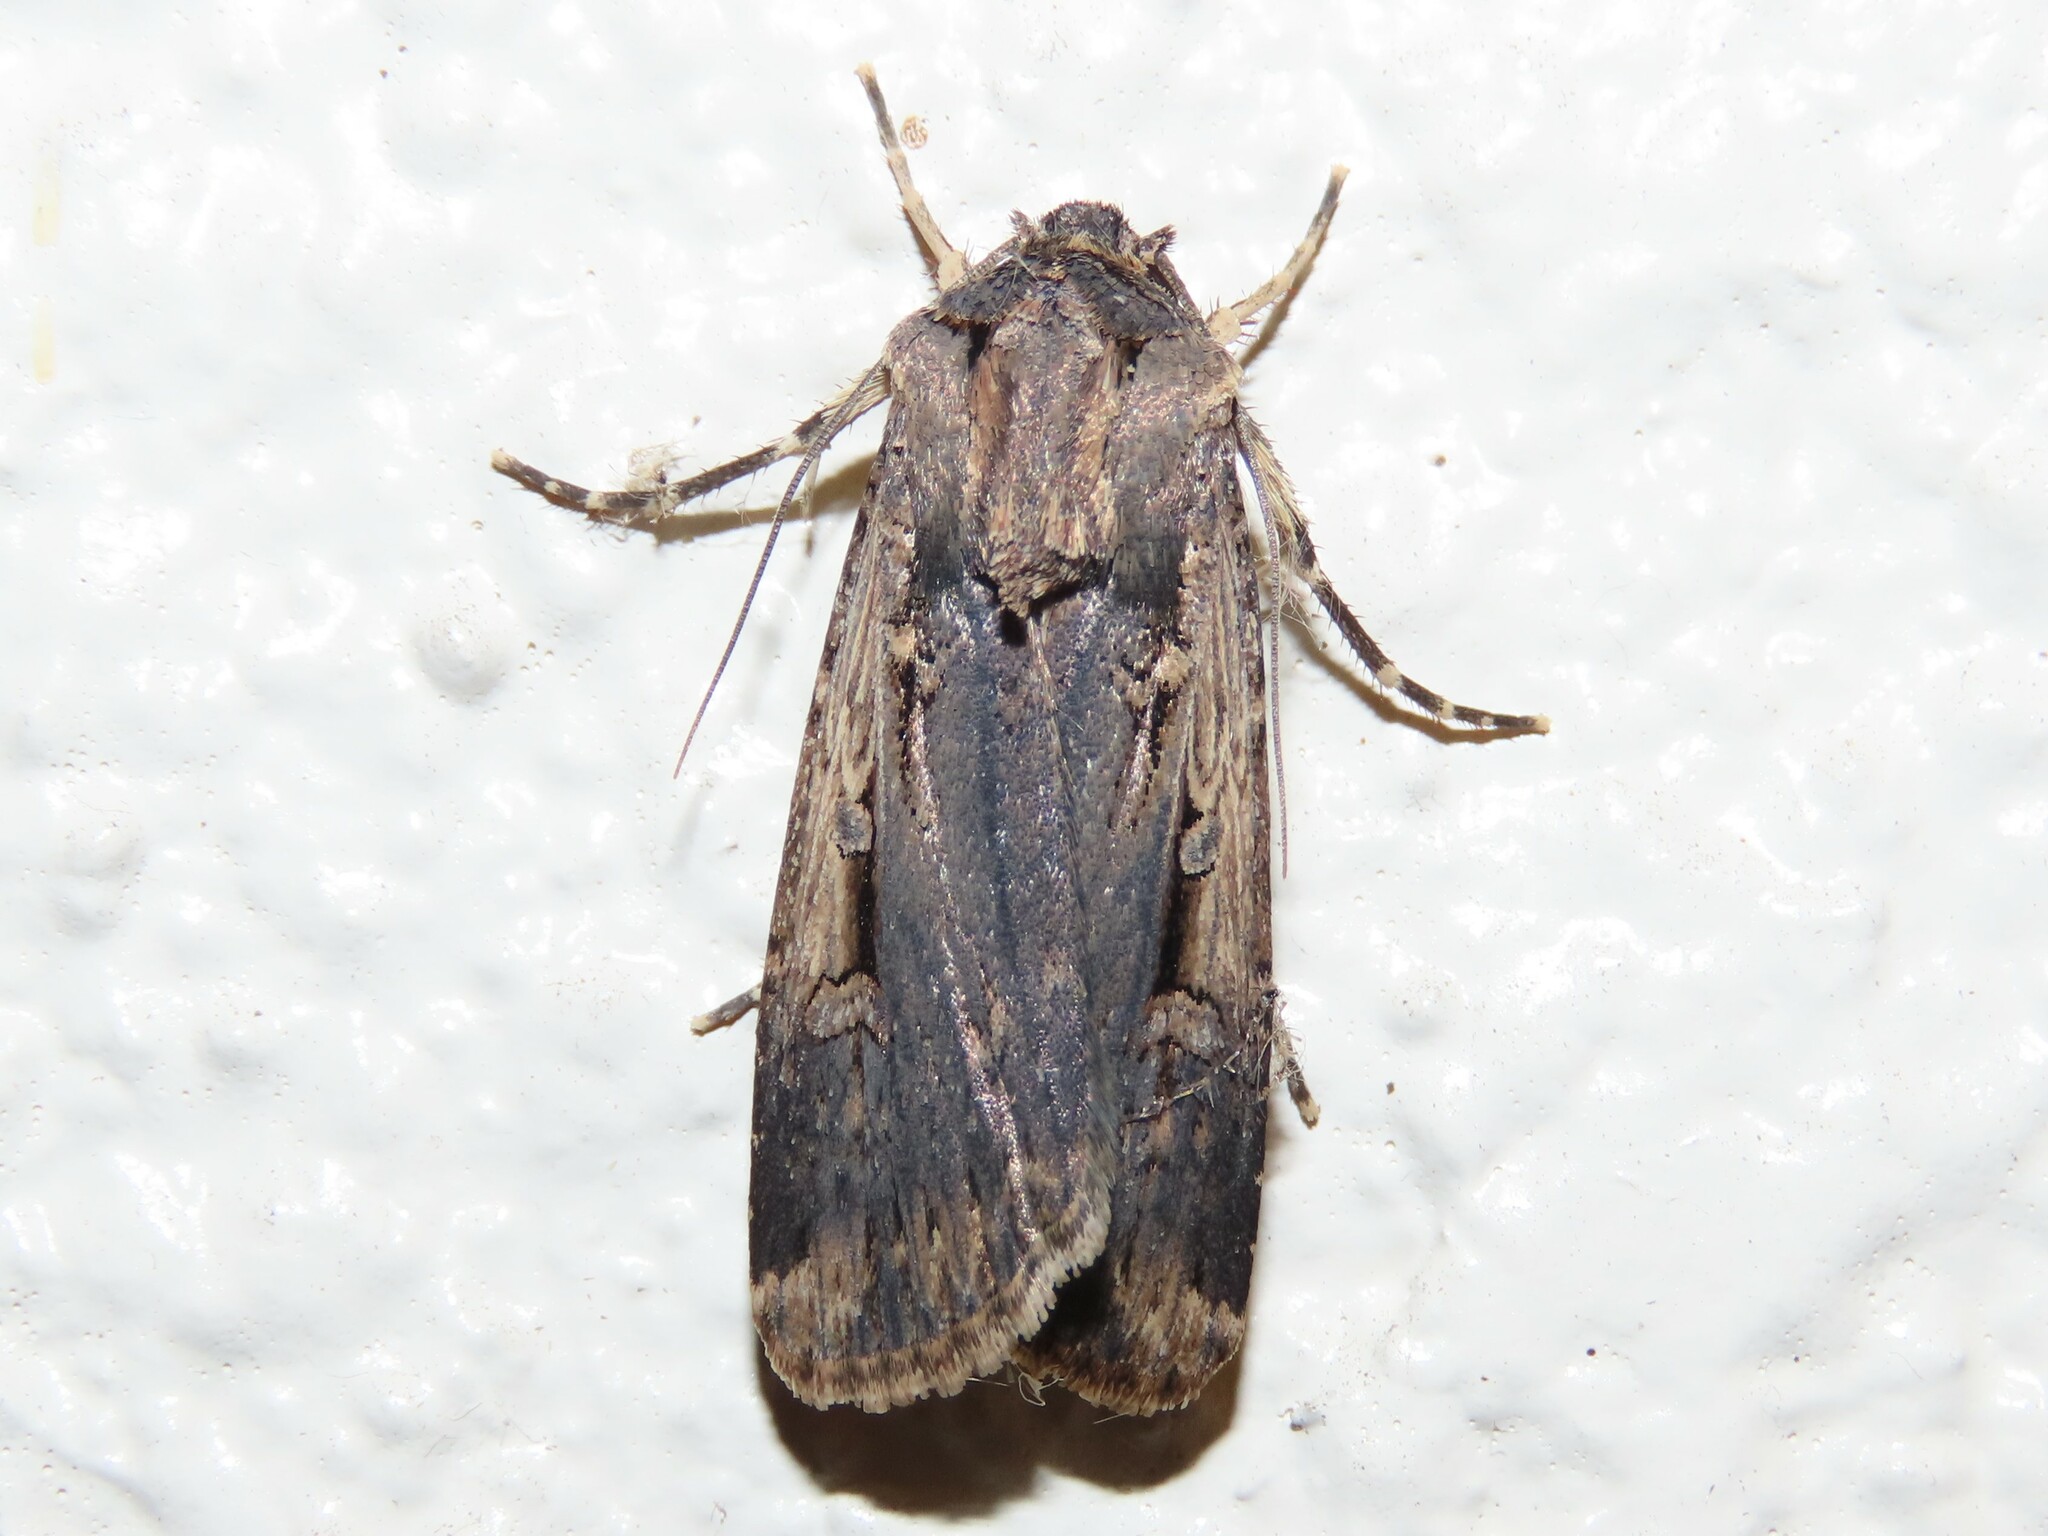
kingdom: Animalia
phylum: Arthropoda
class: Insecta
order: Lepidoptera
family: Noctuidae
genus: Feltia
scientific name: Feltia subterranea
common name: Granulate cutworm
